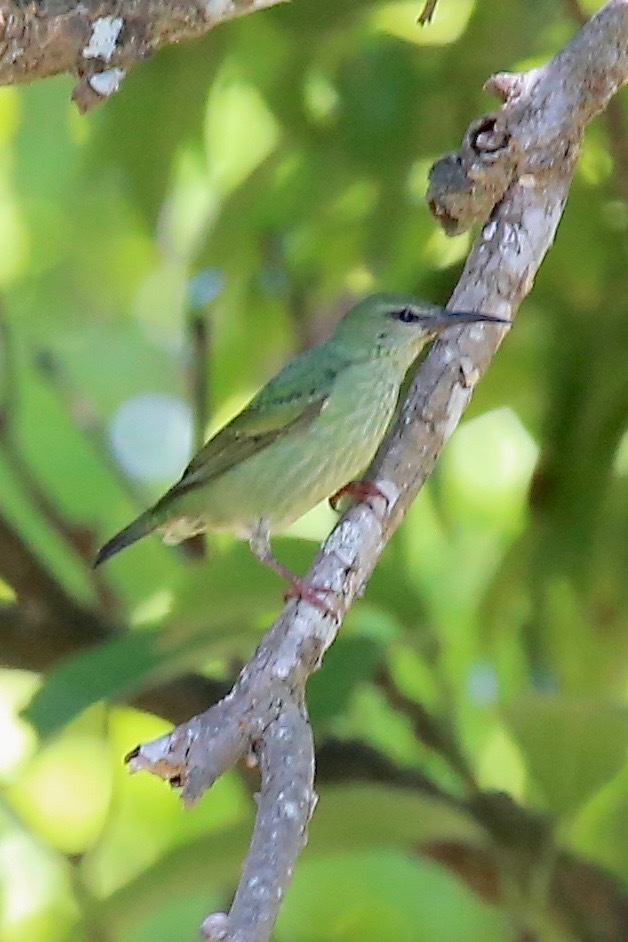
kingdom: Animalia
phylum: Chordata
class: Aves
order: Passeriformes
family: Thraupidae
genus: Cyanerpes
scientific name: Cyanerpes cyaneus
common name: Red-legged honeycreeper
